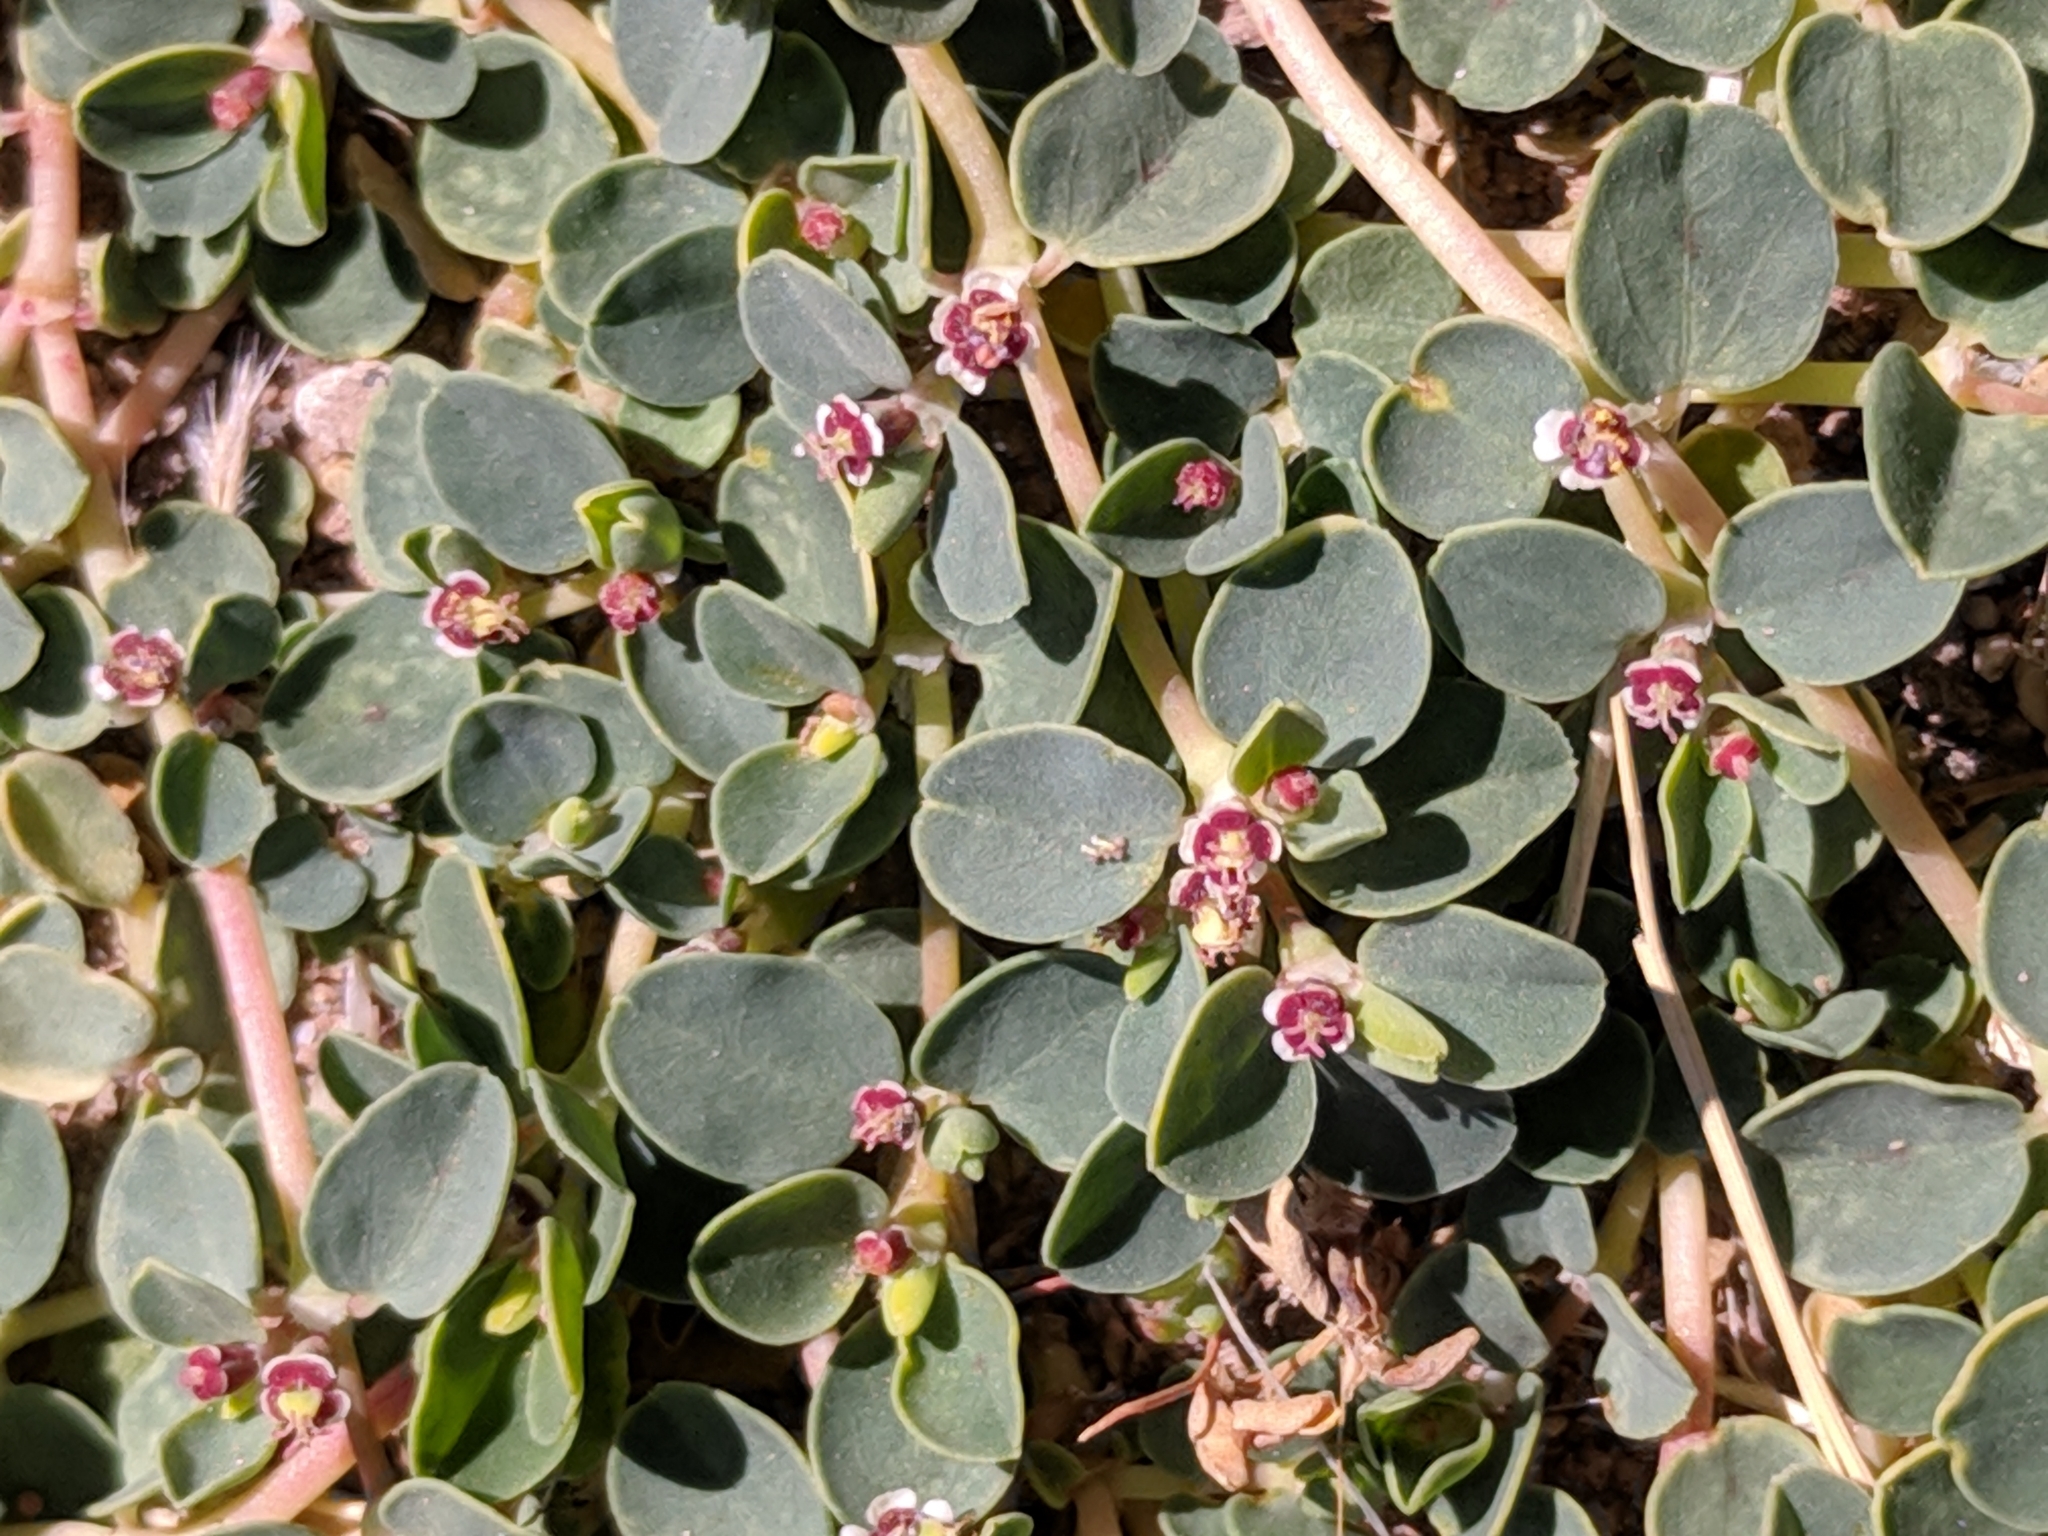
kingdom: Plantae
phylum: Tracheophyta
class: Magnoliopsida
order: Malpighiales
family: Euphorbiaceae
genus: Euphorbia
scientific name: Euphorbia albomarginata
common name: Whitemargin sandmat
